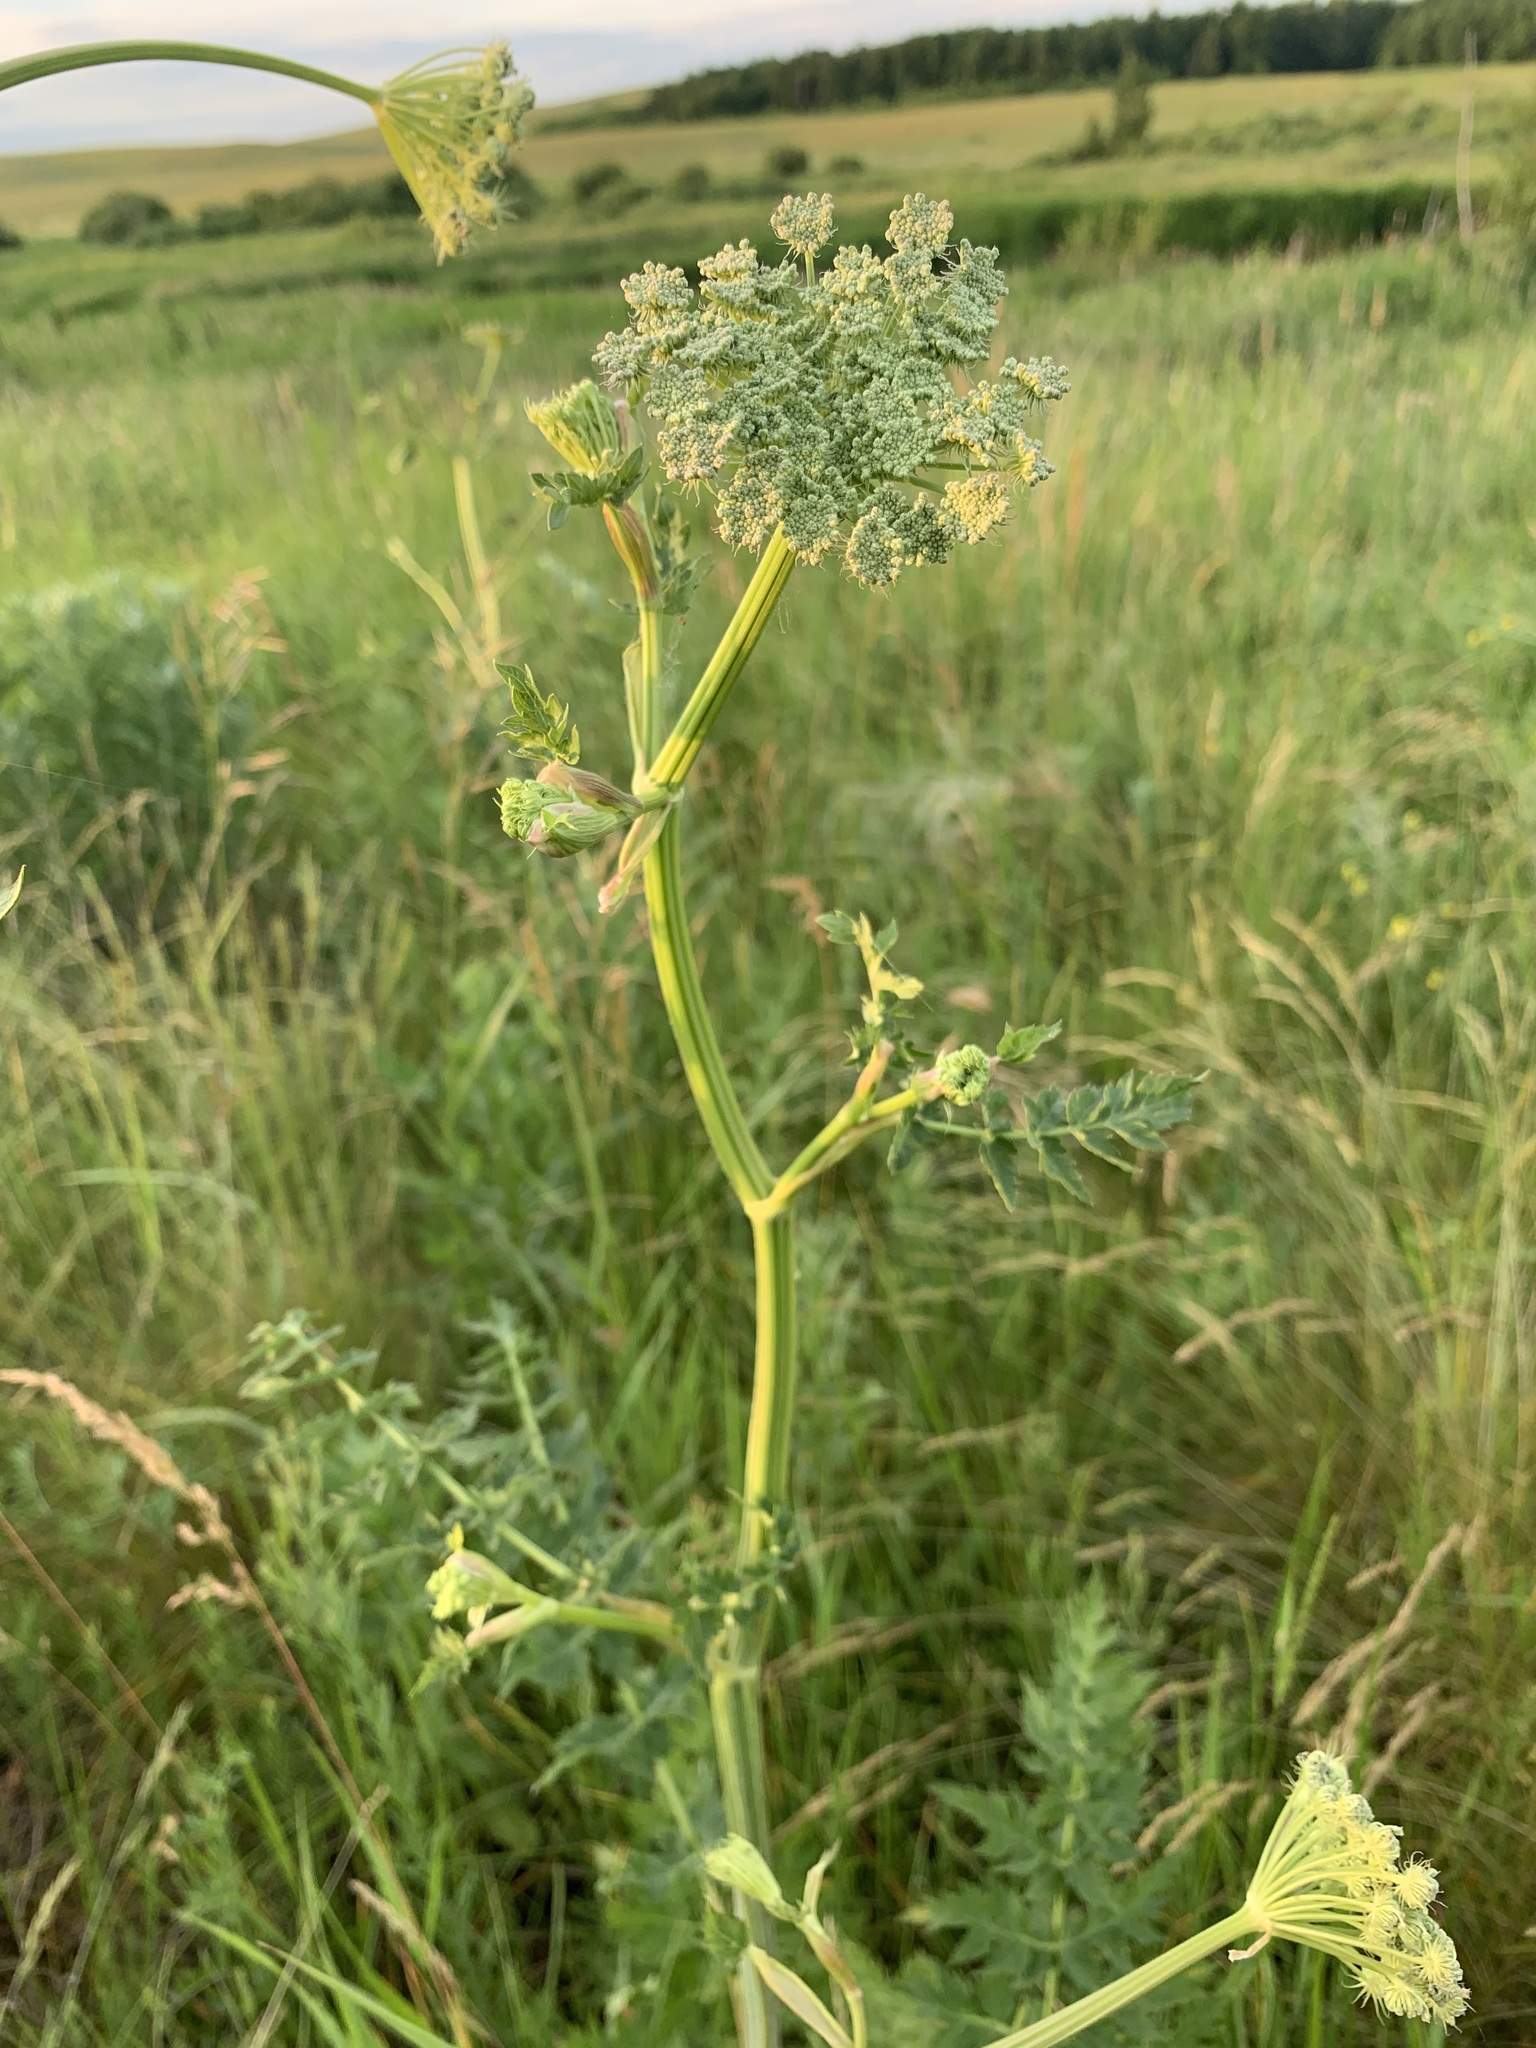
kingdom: Plantae
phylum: Tracheophyta
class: Magnoliopsida
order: Apiales
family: Apiaceae
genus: Seseli
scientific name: Seseli libanotis
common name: Mooncarrot
